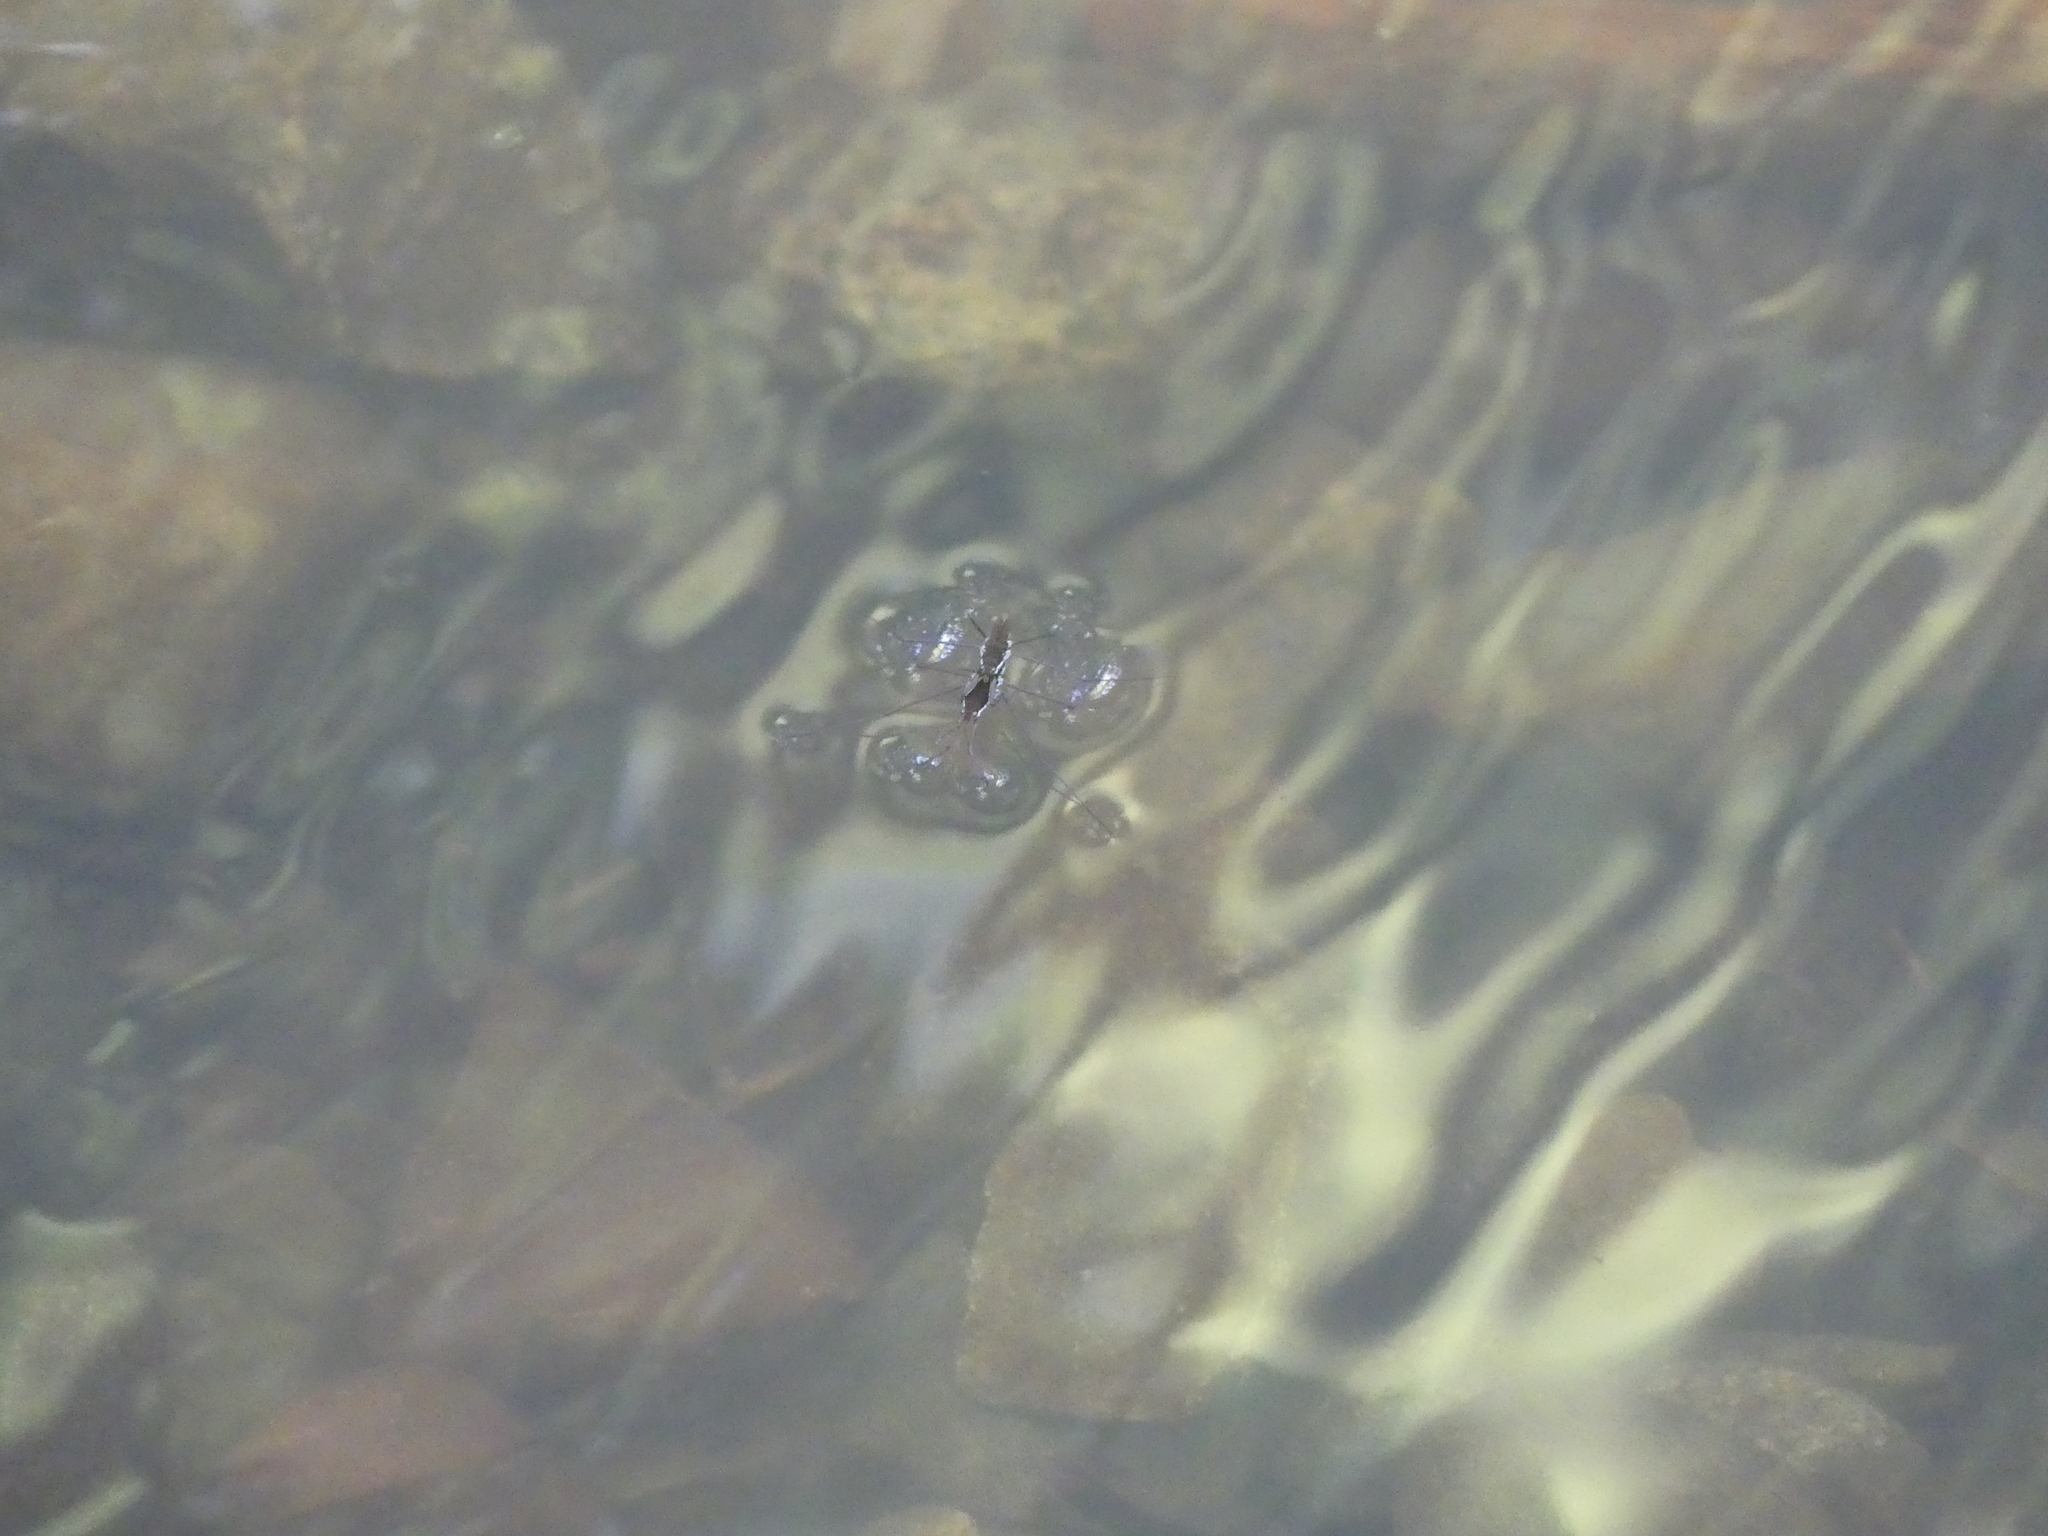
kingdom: Animalia
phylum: Arthropoda
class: Insecta
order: Hemiptera
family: Gerridae
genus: Aquarius
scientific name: Aquarius remigis
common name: Common water strider
